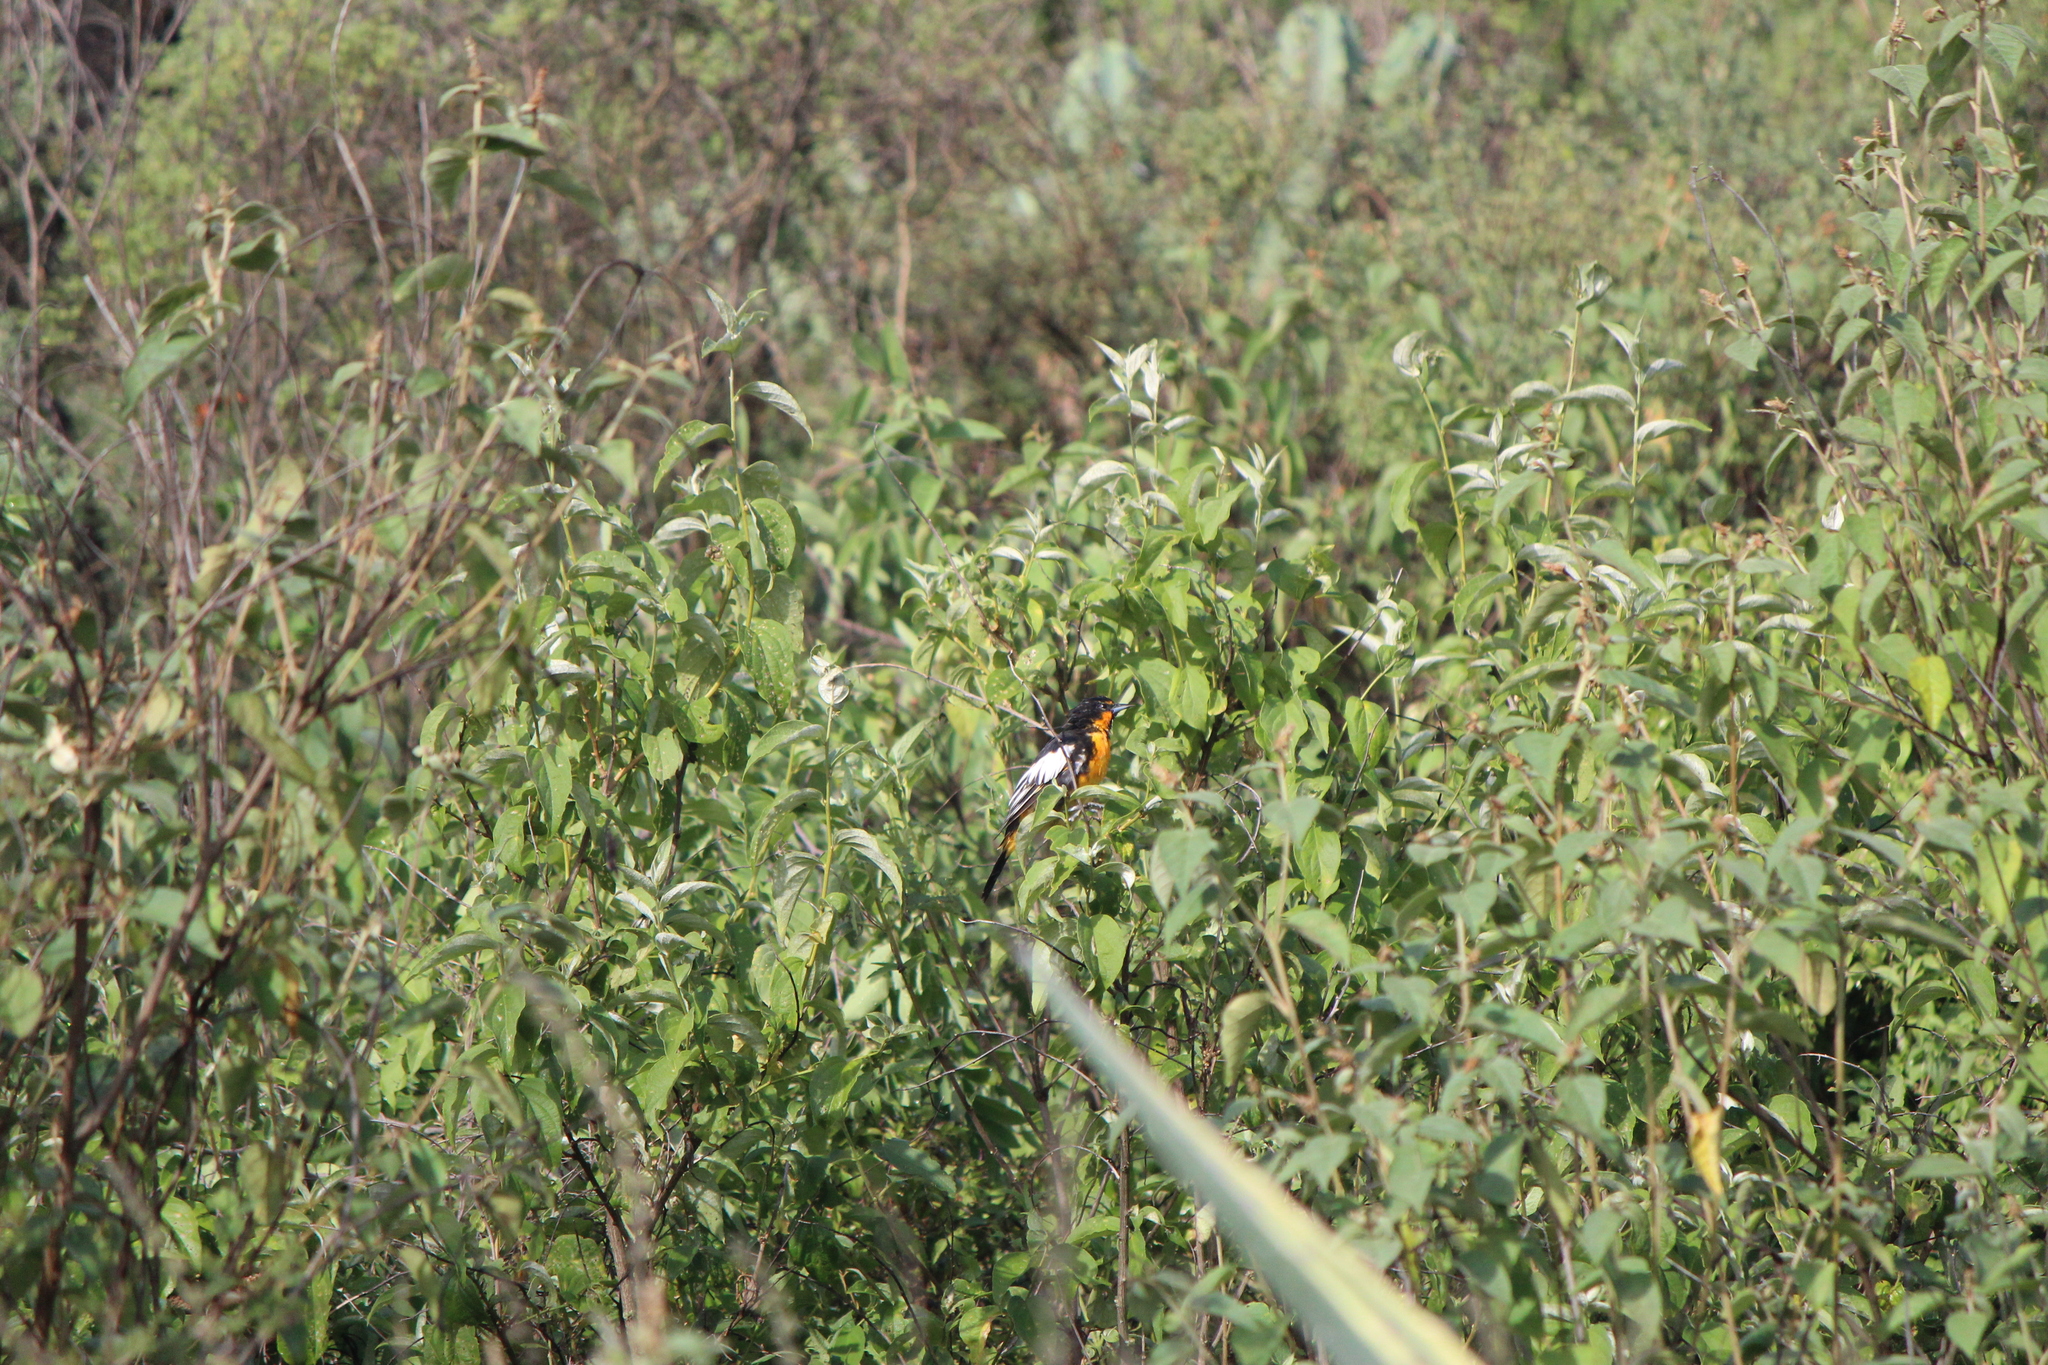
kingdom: Animalia
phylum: Chordata
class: Aves
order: Passeriformes
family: Icteridae
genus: Icterus
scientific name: Icterus abeillei
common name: Black-backed oriole
